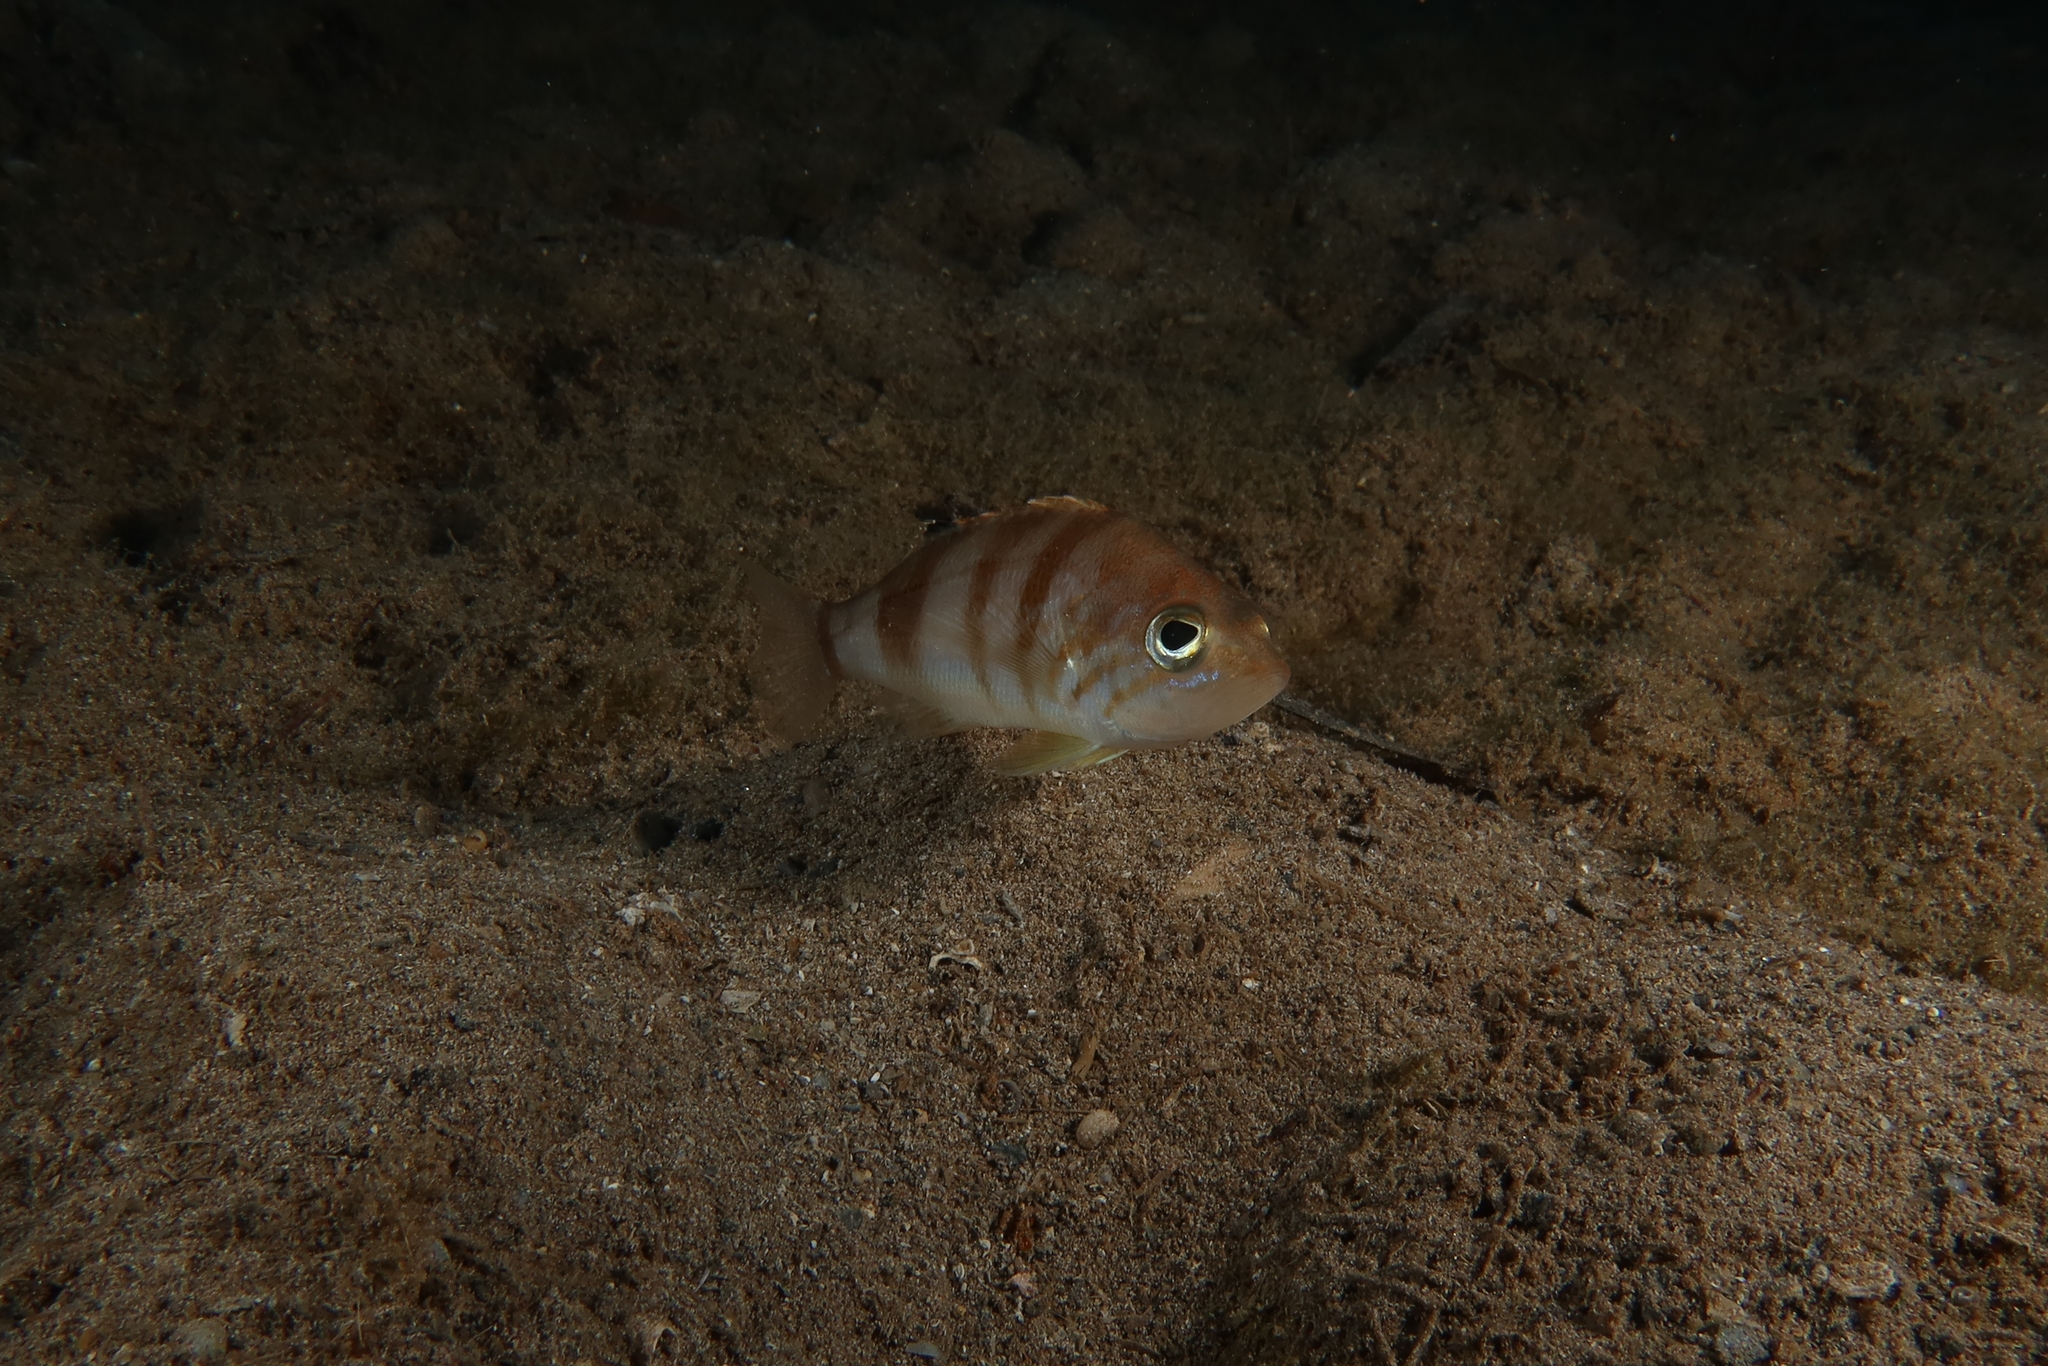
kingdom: Animalia
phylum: Chordata
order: Perciformes
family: Serranidae
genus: Serranus
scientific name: Serranus hepatus
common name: Brown comber
